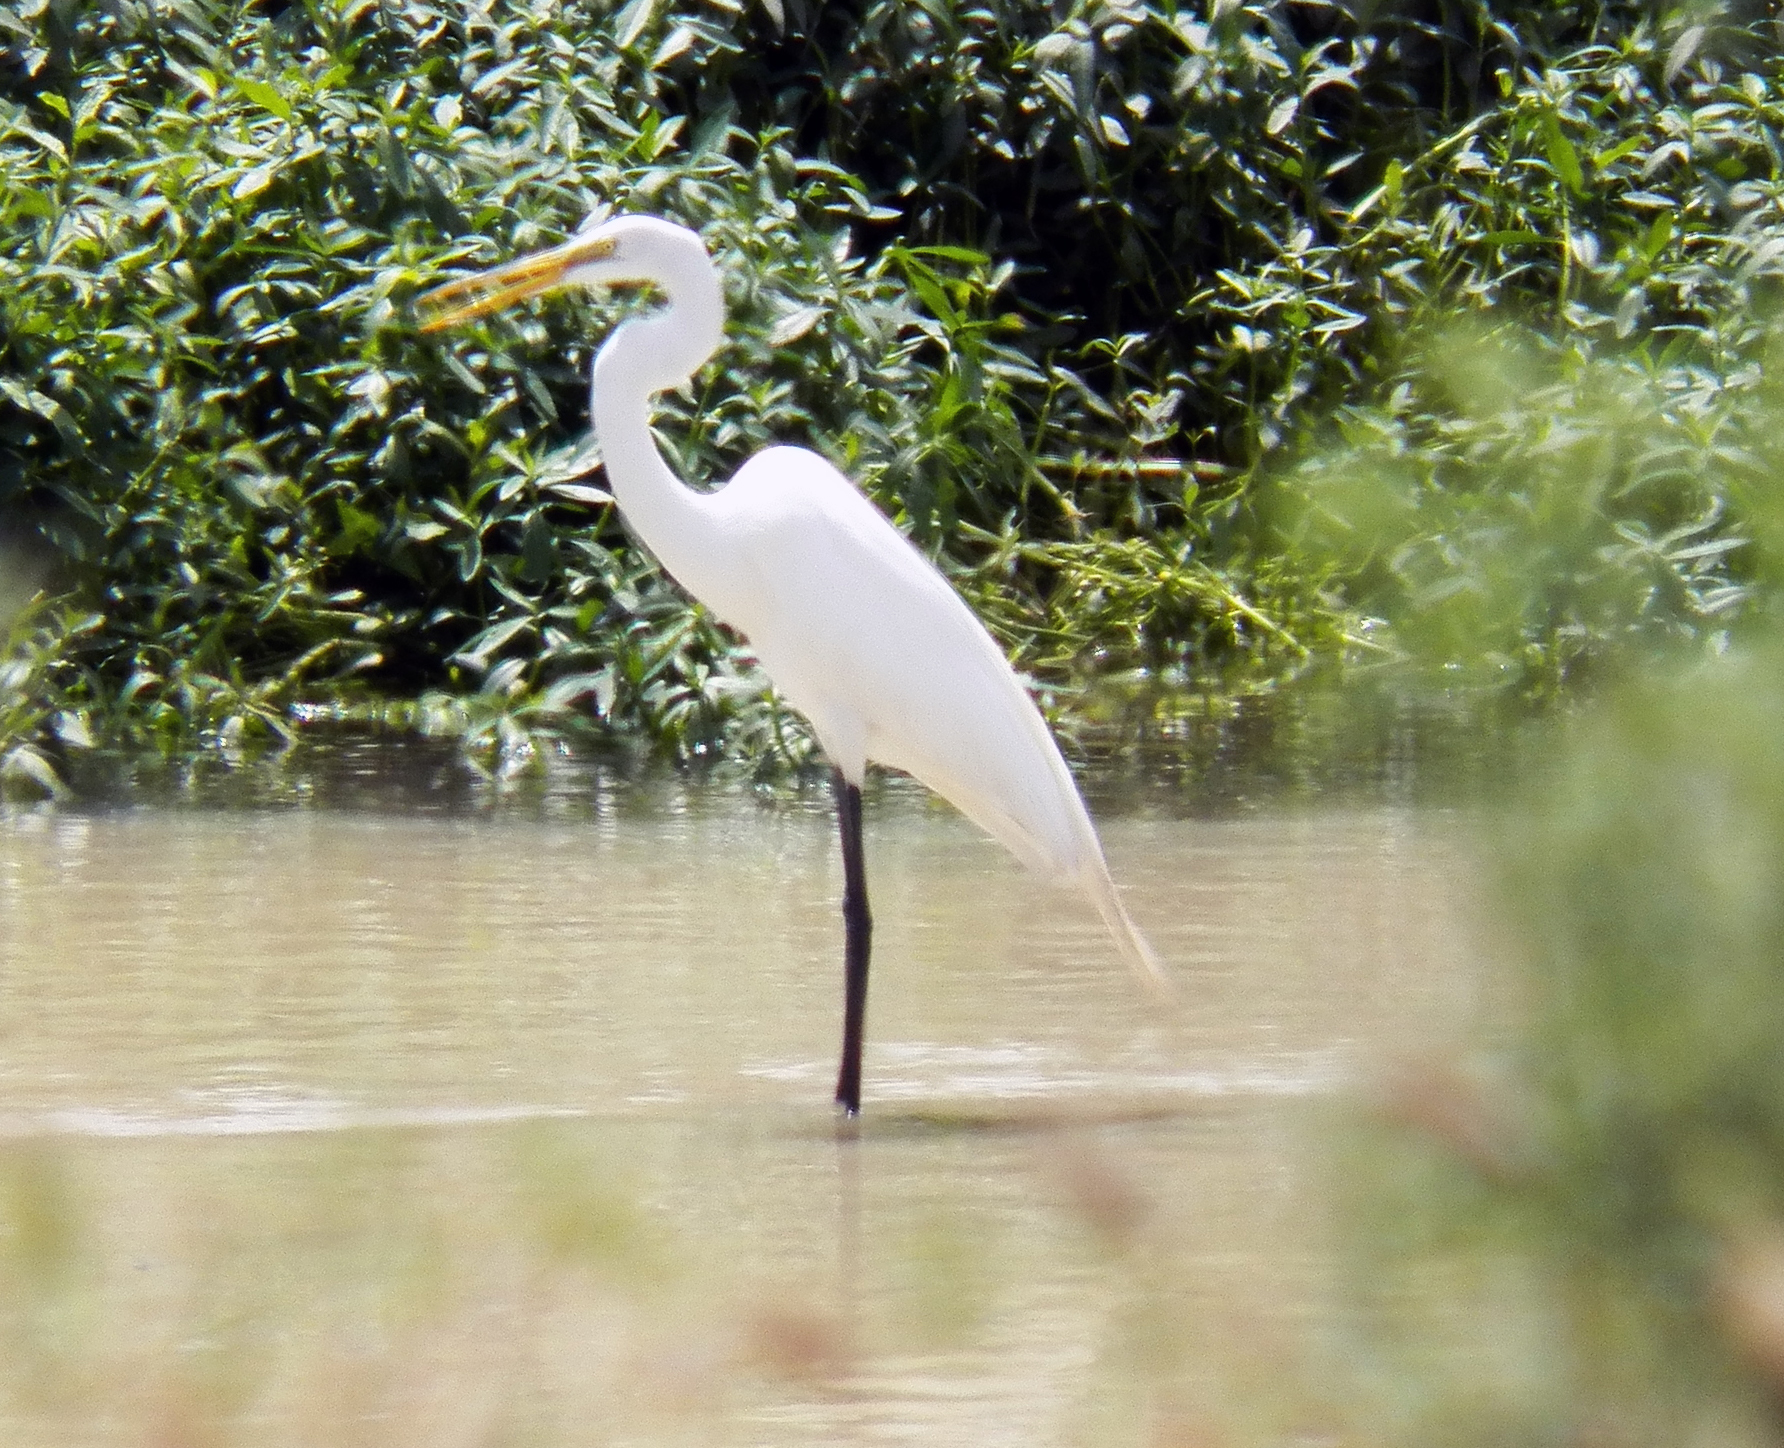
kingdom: Animalia
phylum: Chordata
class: Aves
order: Pelecaniformes
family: Ardeidae
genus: Ardea
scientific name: Ardea alba
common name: Great egret
